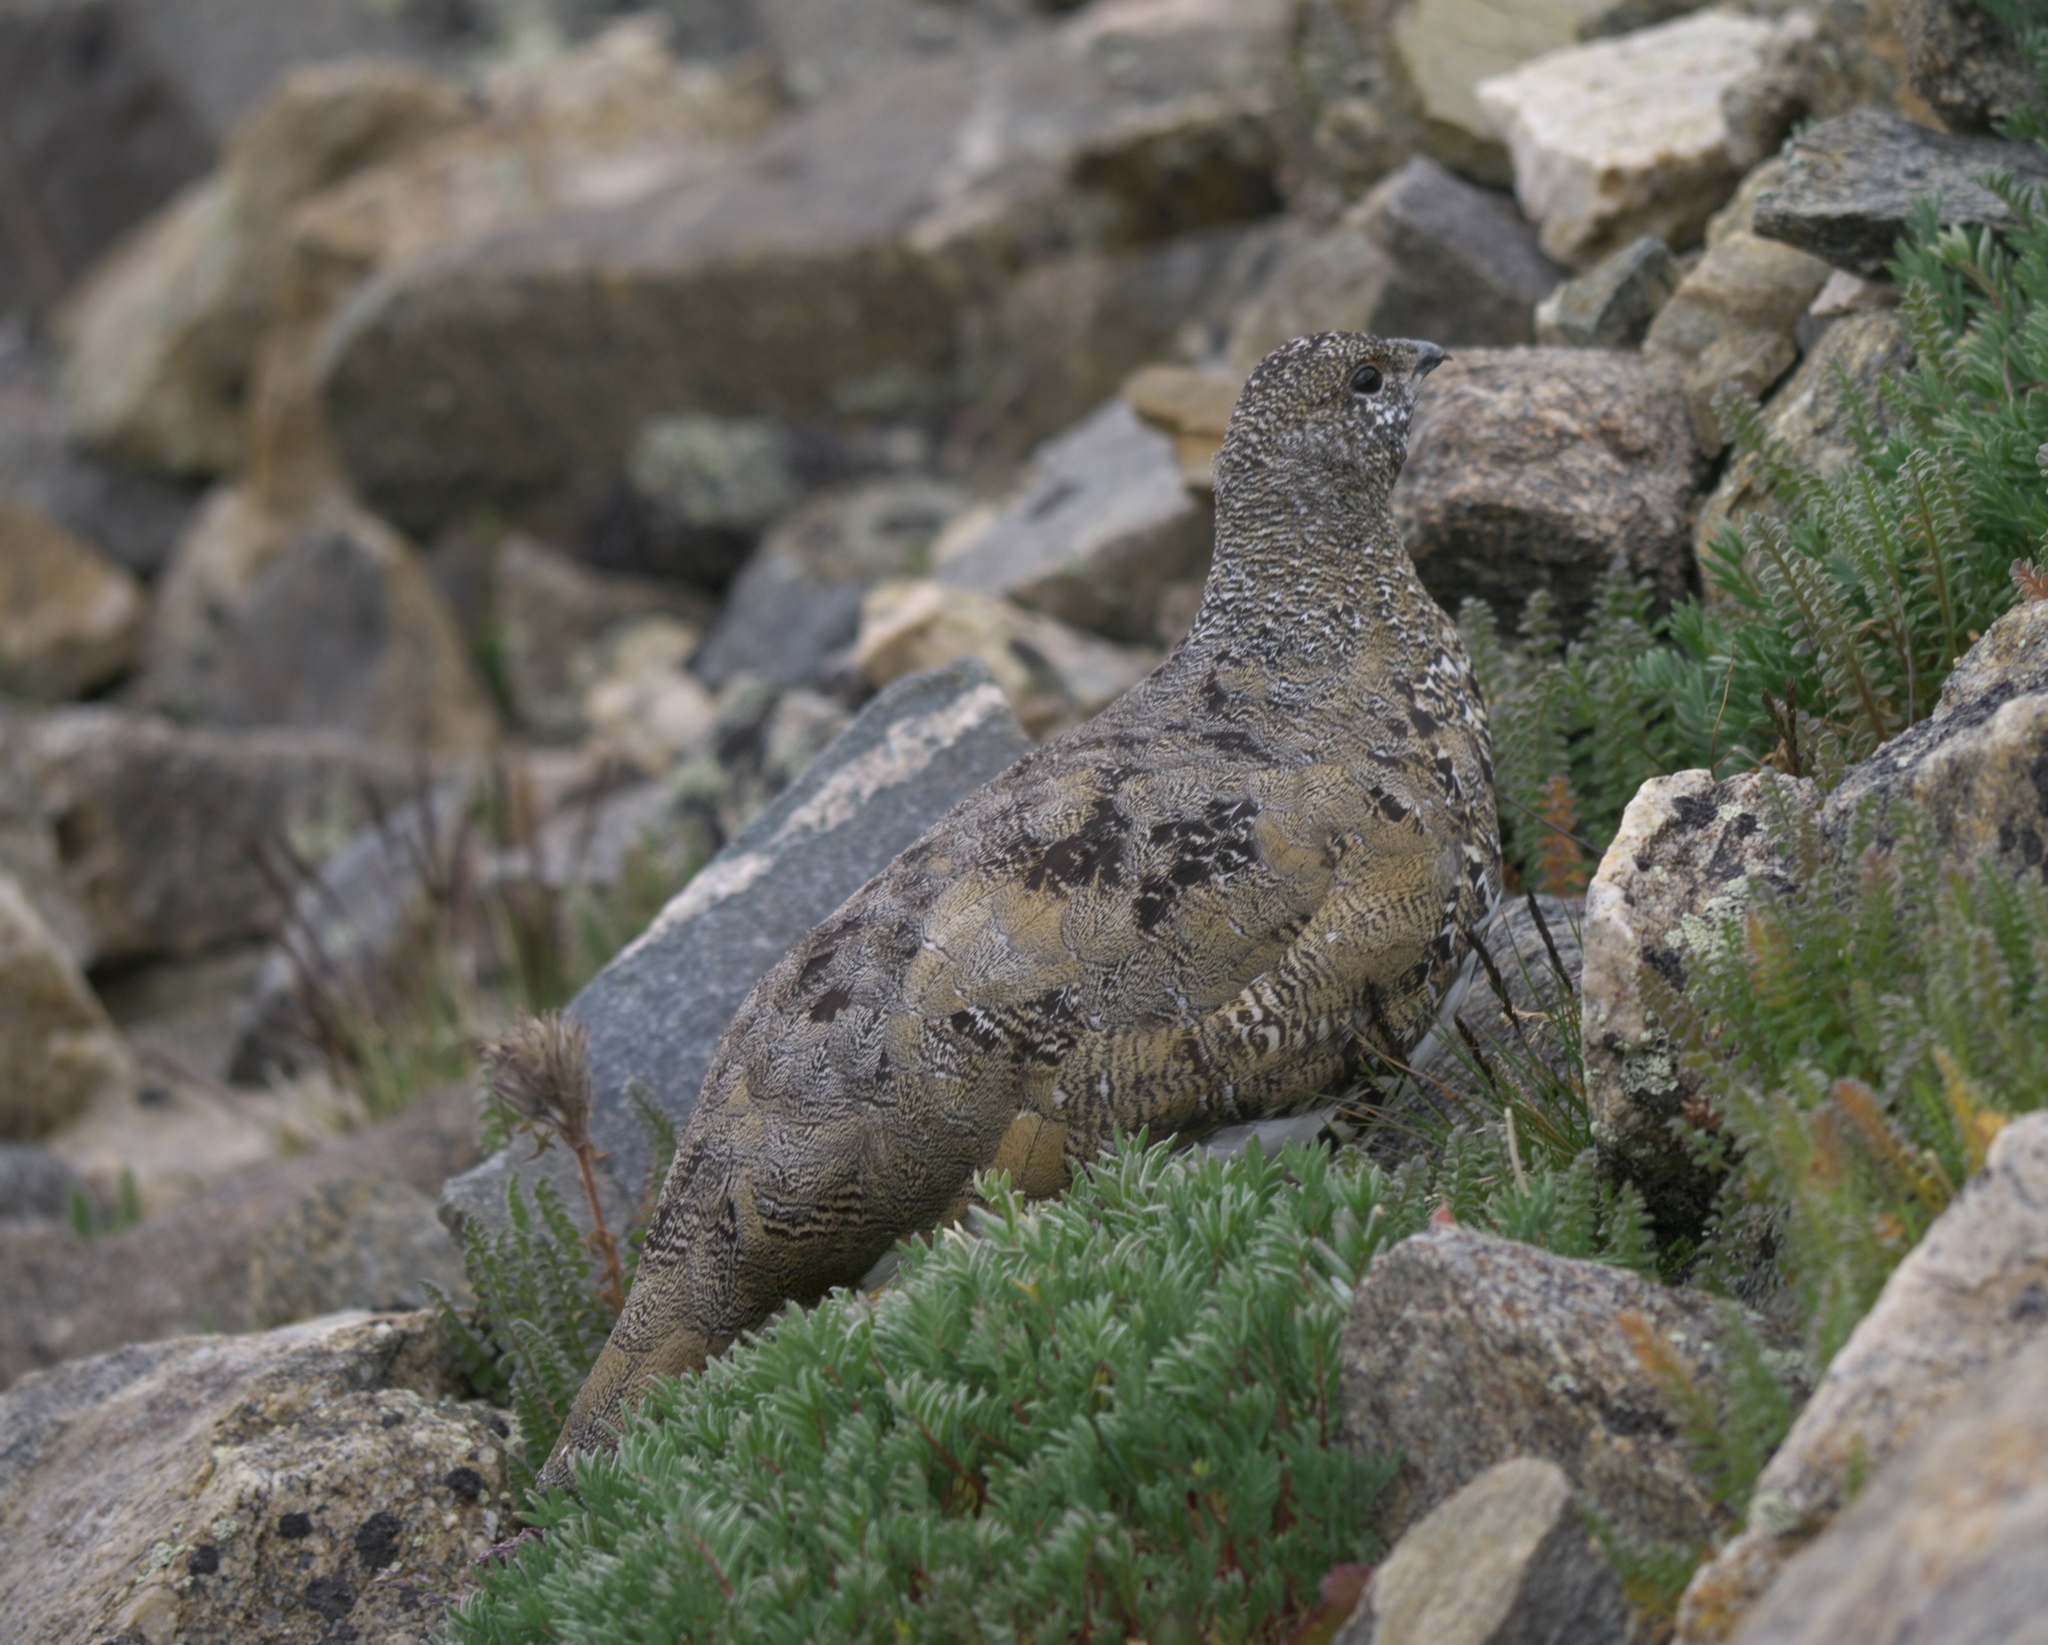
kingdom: Animalia
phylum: Chordata
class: Aves
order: Galliformes
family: Phasianidae
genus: Lagopus
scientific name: Lagopus leucura
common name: White-tailed ptarmigan
